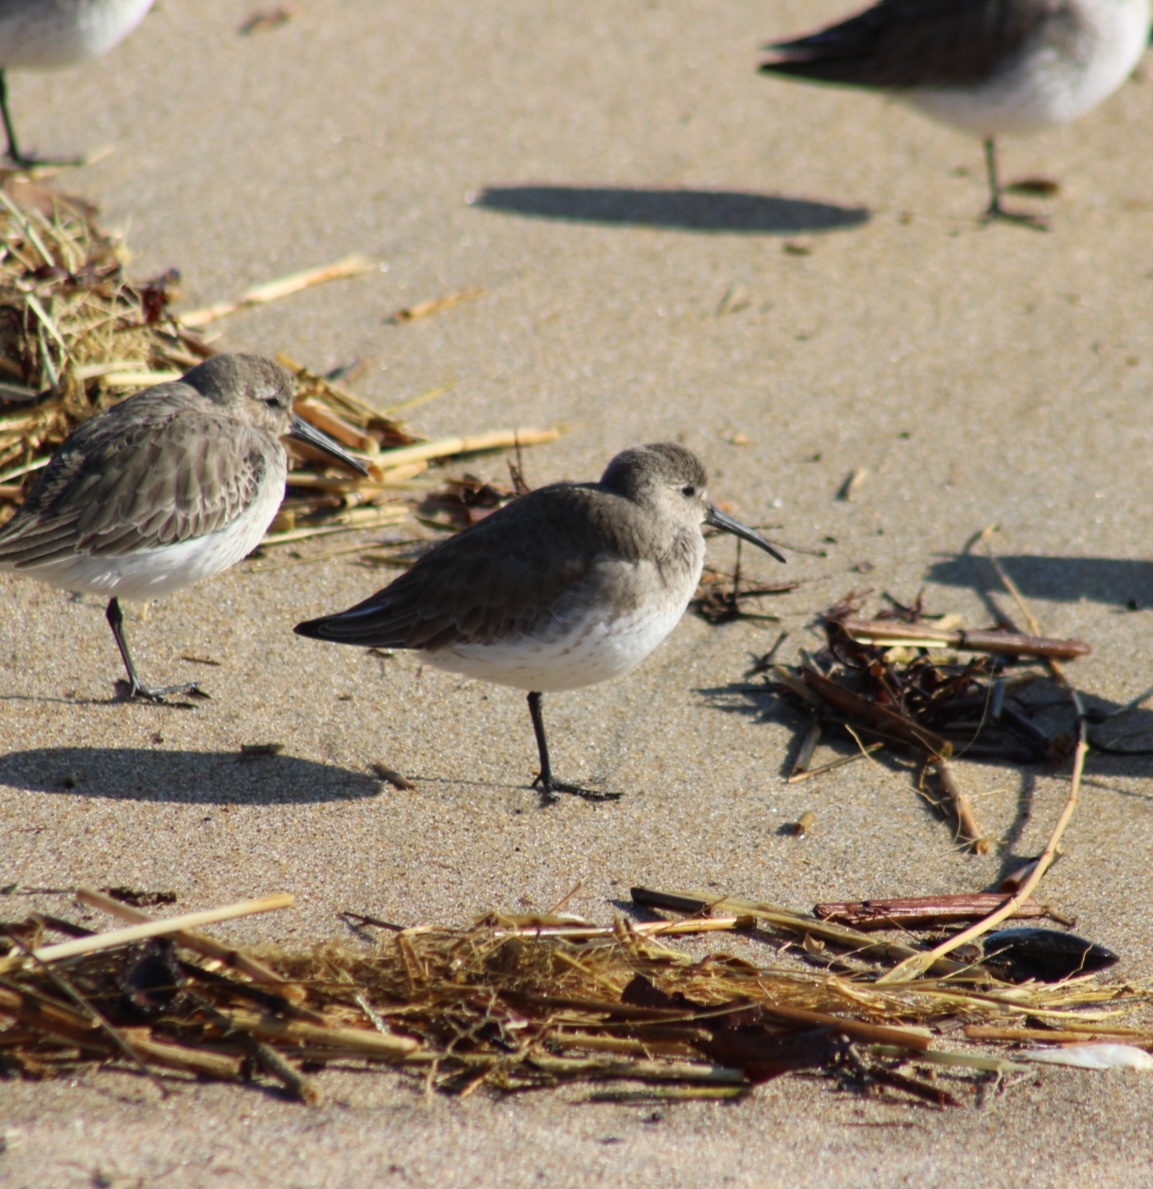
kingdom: Animalia
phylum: Chordata
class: Aves
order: Charadriiformes
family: Scolopacidae
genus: Calidris
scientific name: Calidris alpina
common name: Dunlin
